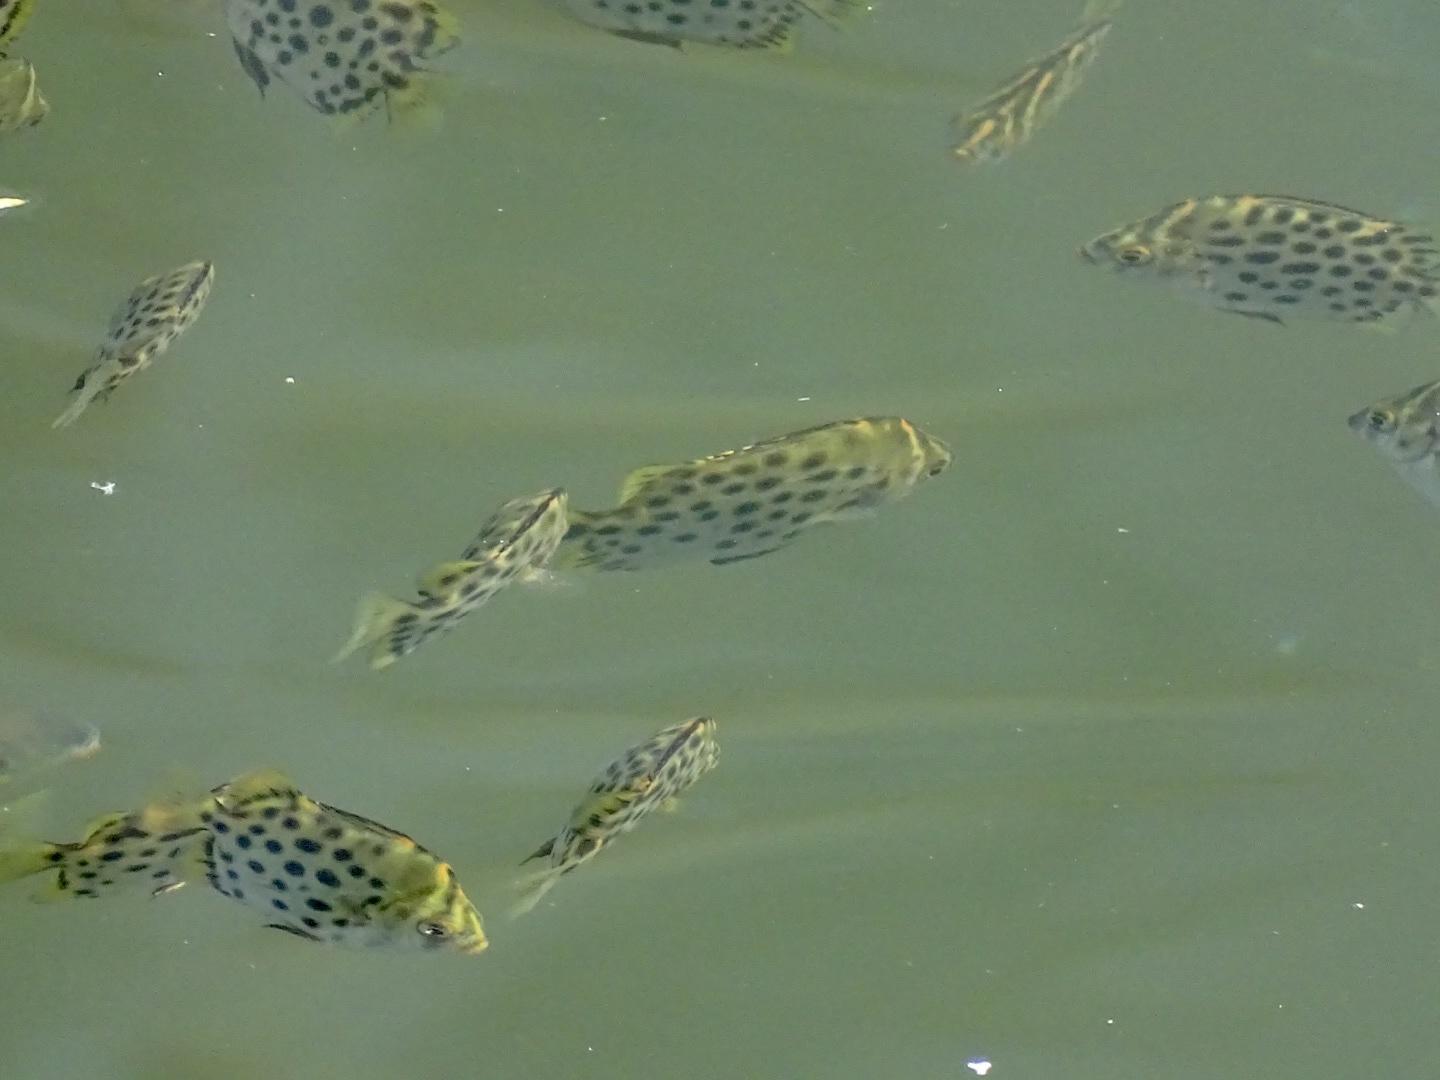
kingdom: Animalia
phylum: Chordata
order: Perciformes
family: Scatophagidae
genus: Scatophagus
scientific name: Scatophagus argus
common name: Spotted scat
